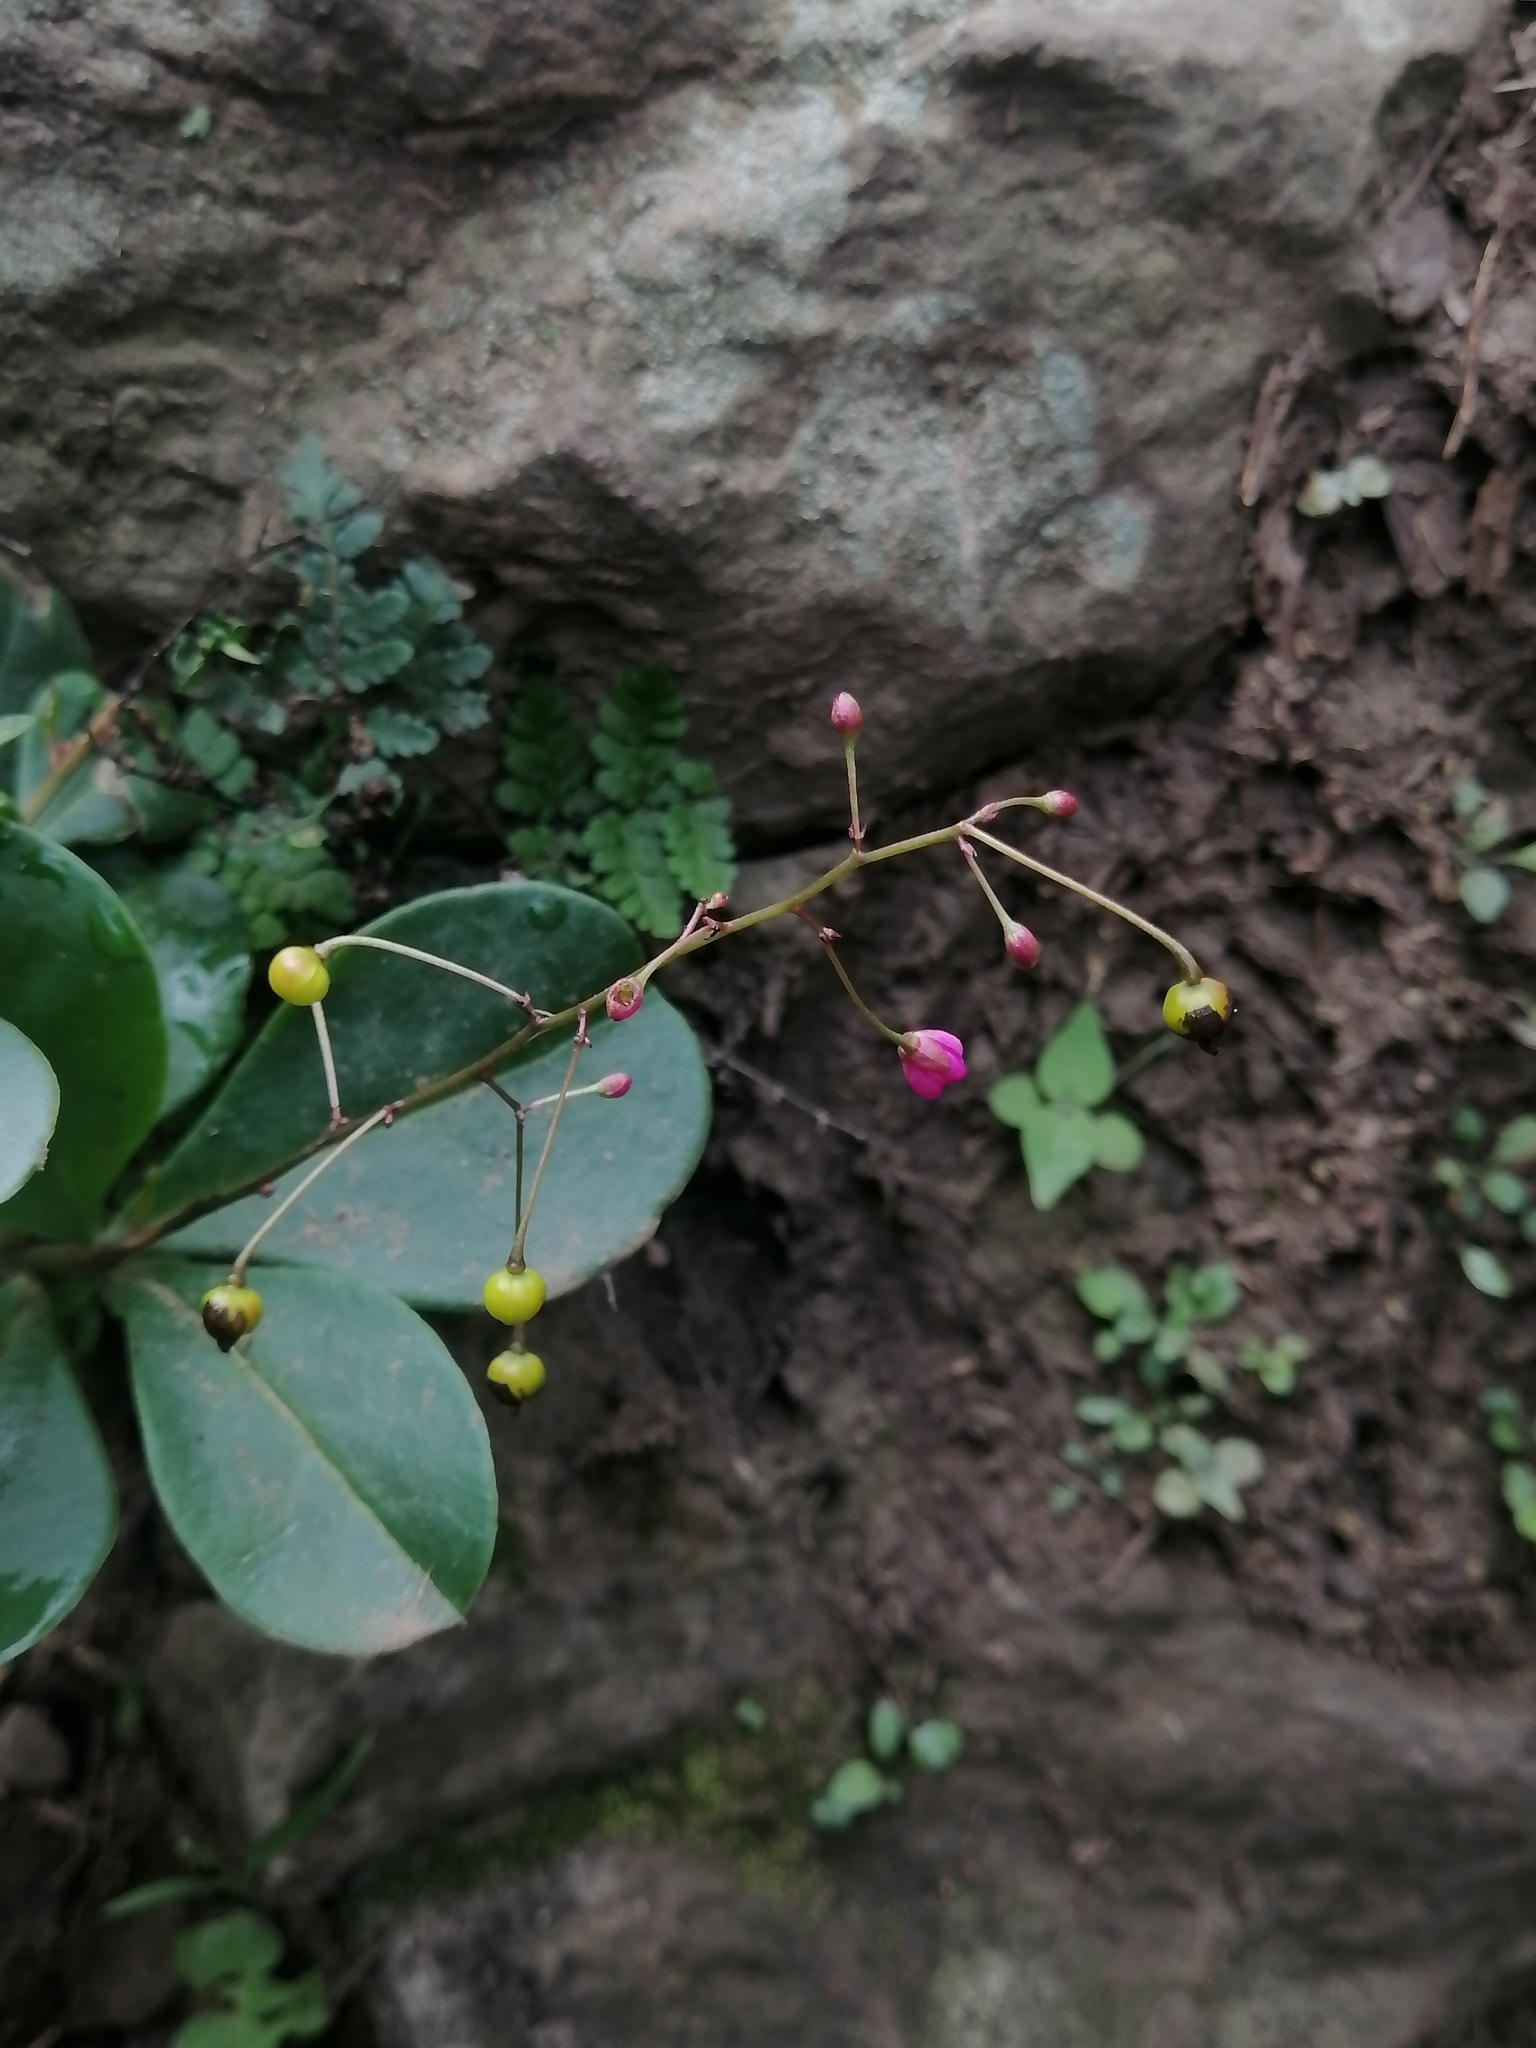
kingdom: Plantae
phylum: Tracheophyta
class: Magnoliopsida
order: Caryophyllales
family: Talinaceae
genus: Talinum
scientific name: Talinum paniculatum
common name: Jewels of opar
